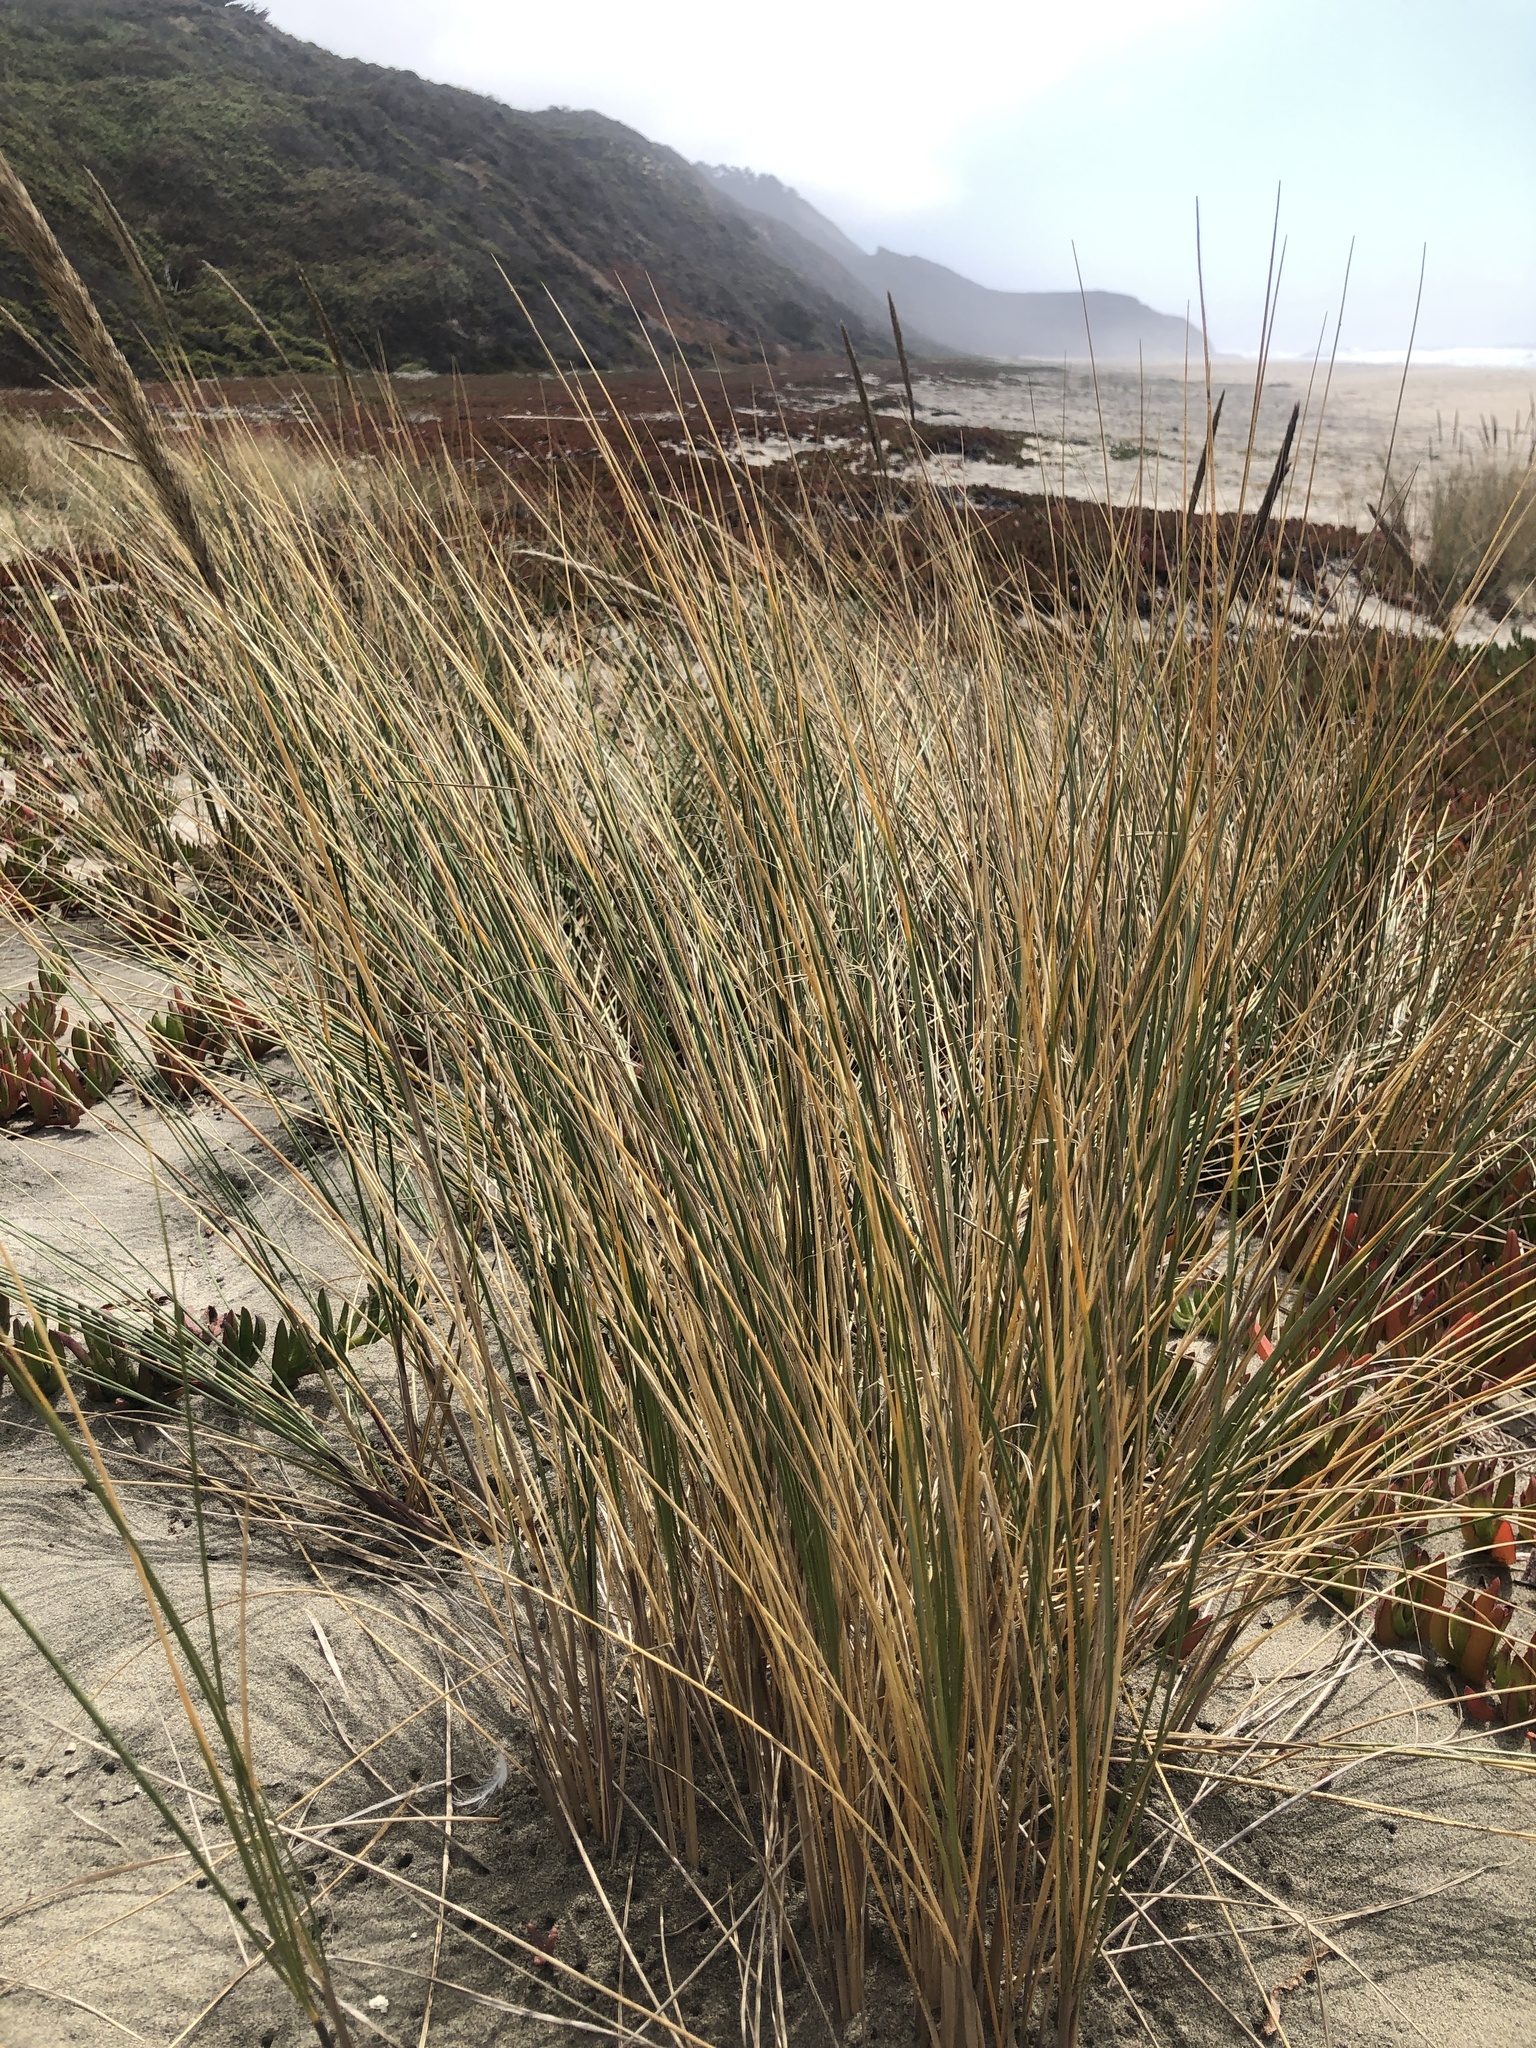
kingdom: Plantae
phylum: Tracheophyta
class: Liliopsida
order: Poales
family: Poaceae
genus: Calamagrostis
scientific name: Calamagrostis arenaria
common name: European beachgrass
